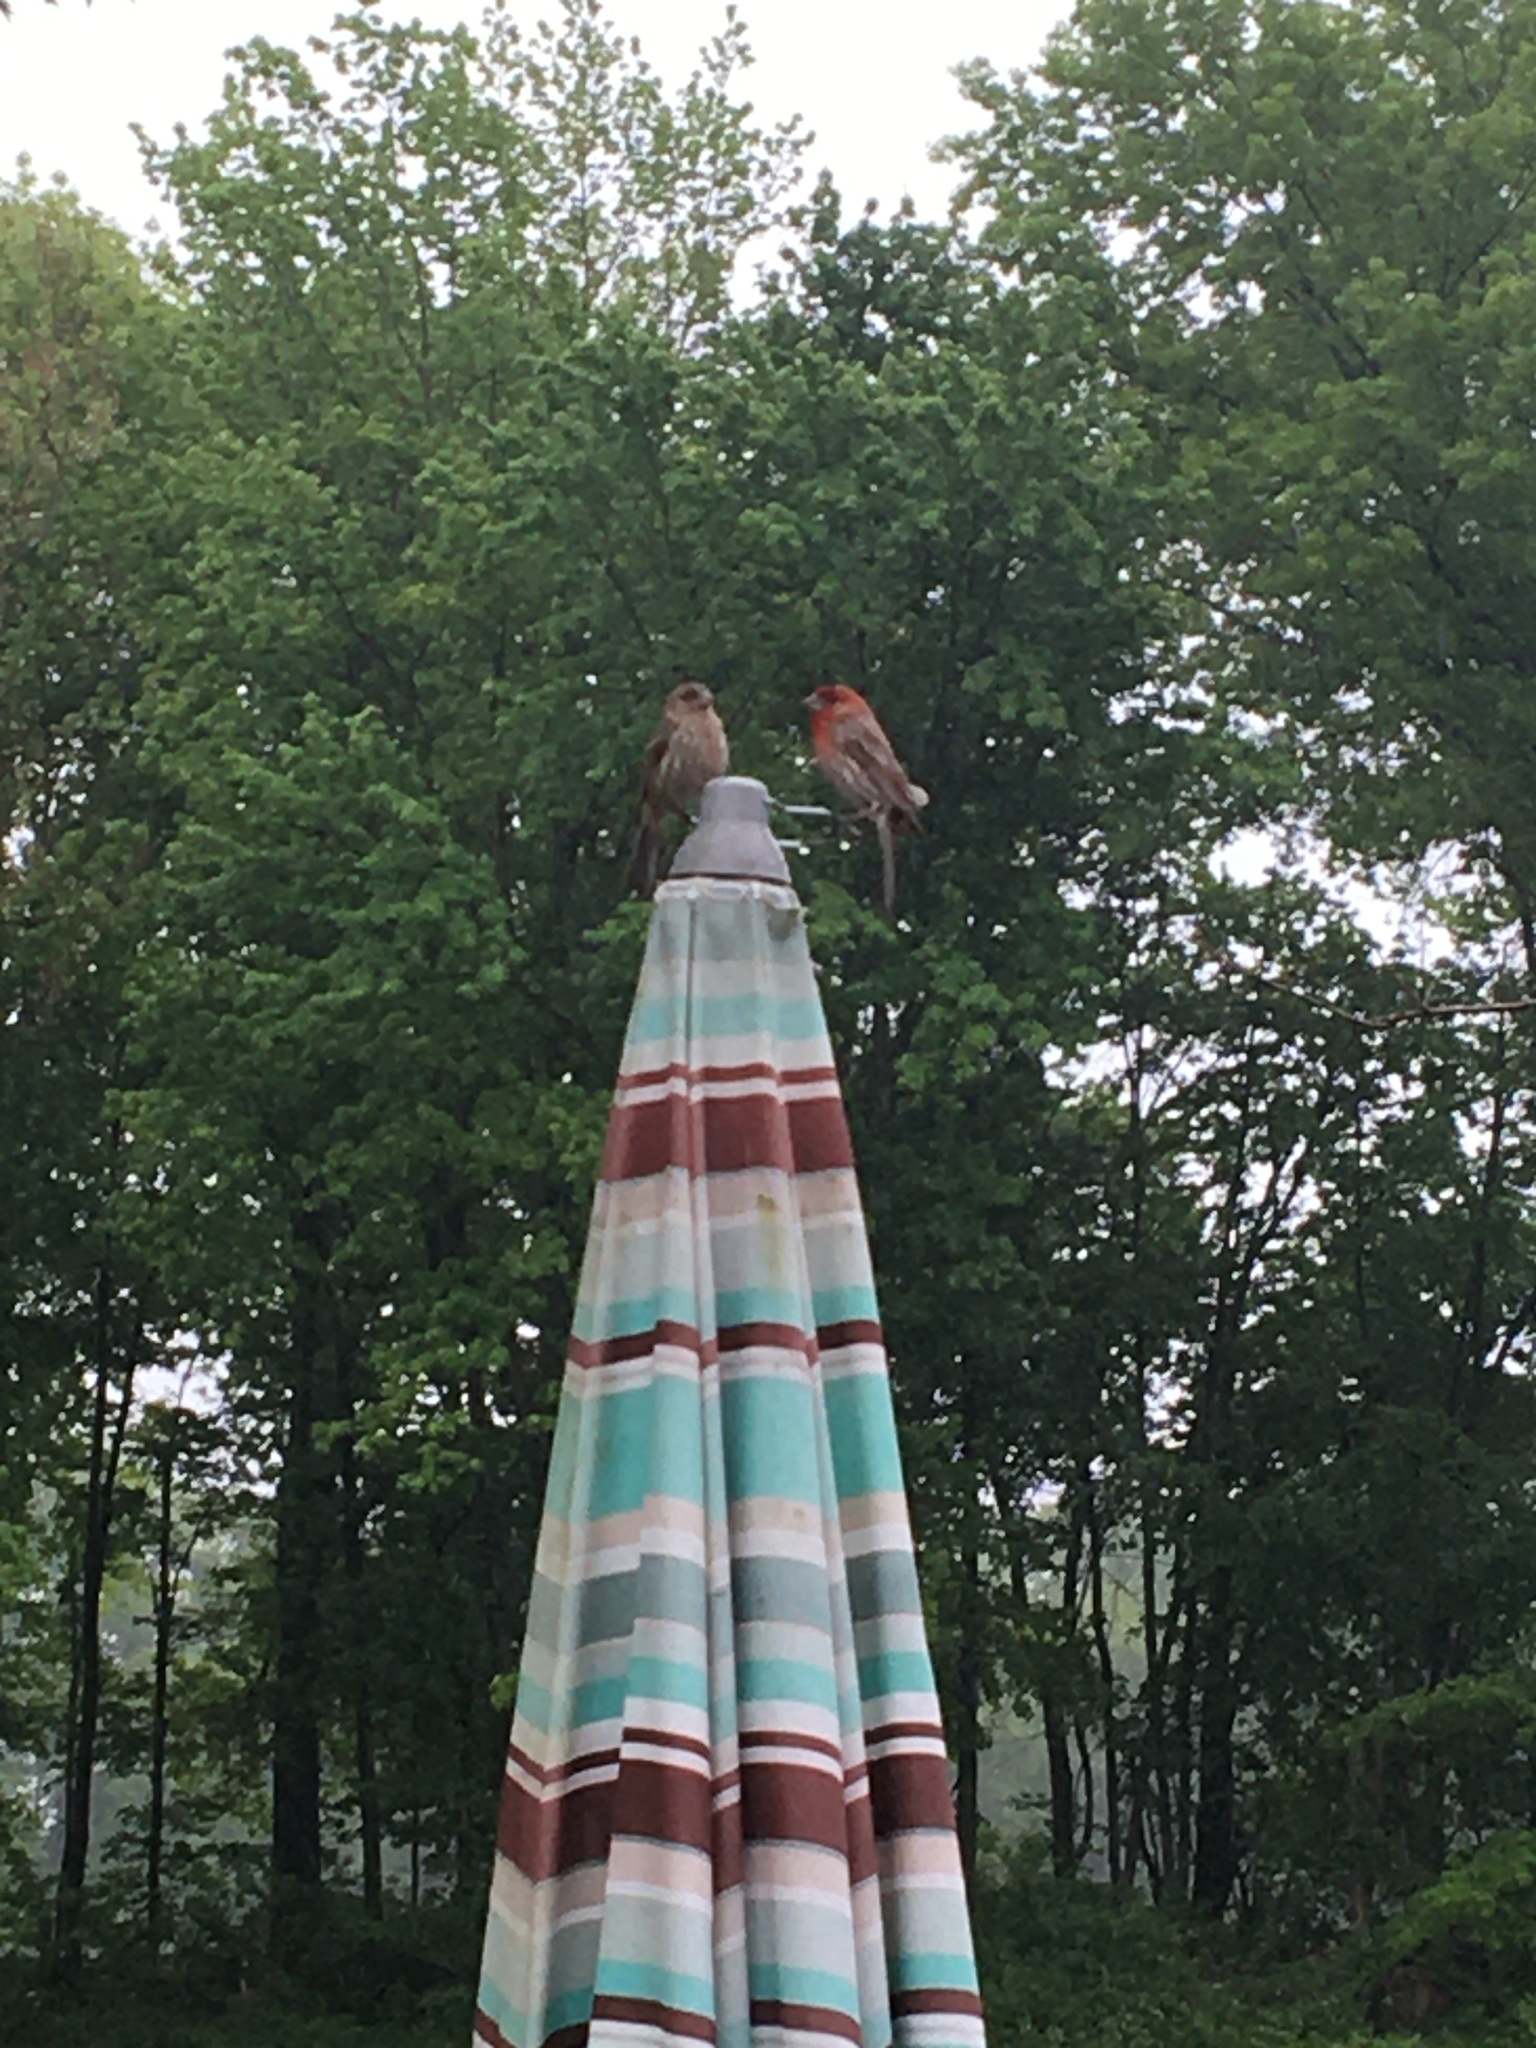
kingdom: Animalia
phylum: Chordata
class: Aves
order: Passeriformes
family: Fringillidae
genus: Haemorhous
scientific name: Haemorhous mexicanus
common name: House finch
